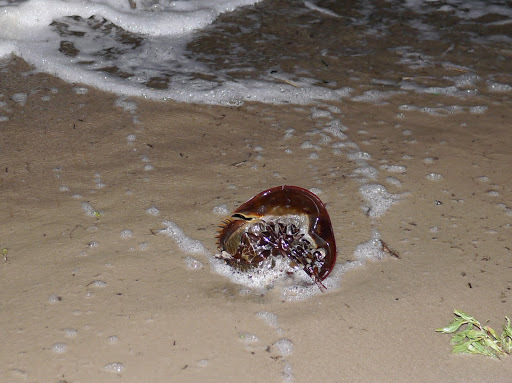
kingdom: Animalia
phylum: Arthropoda
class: Merostomata
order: Xiphosurida
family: Limulidae
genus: Limulus
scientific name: Limulus polyphemus
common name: Horseshoe crab
